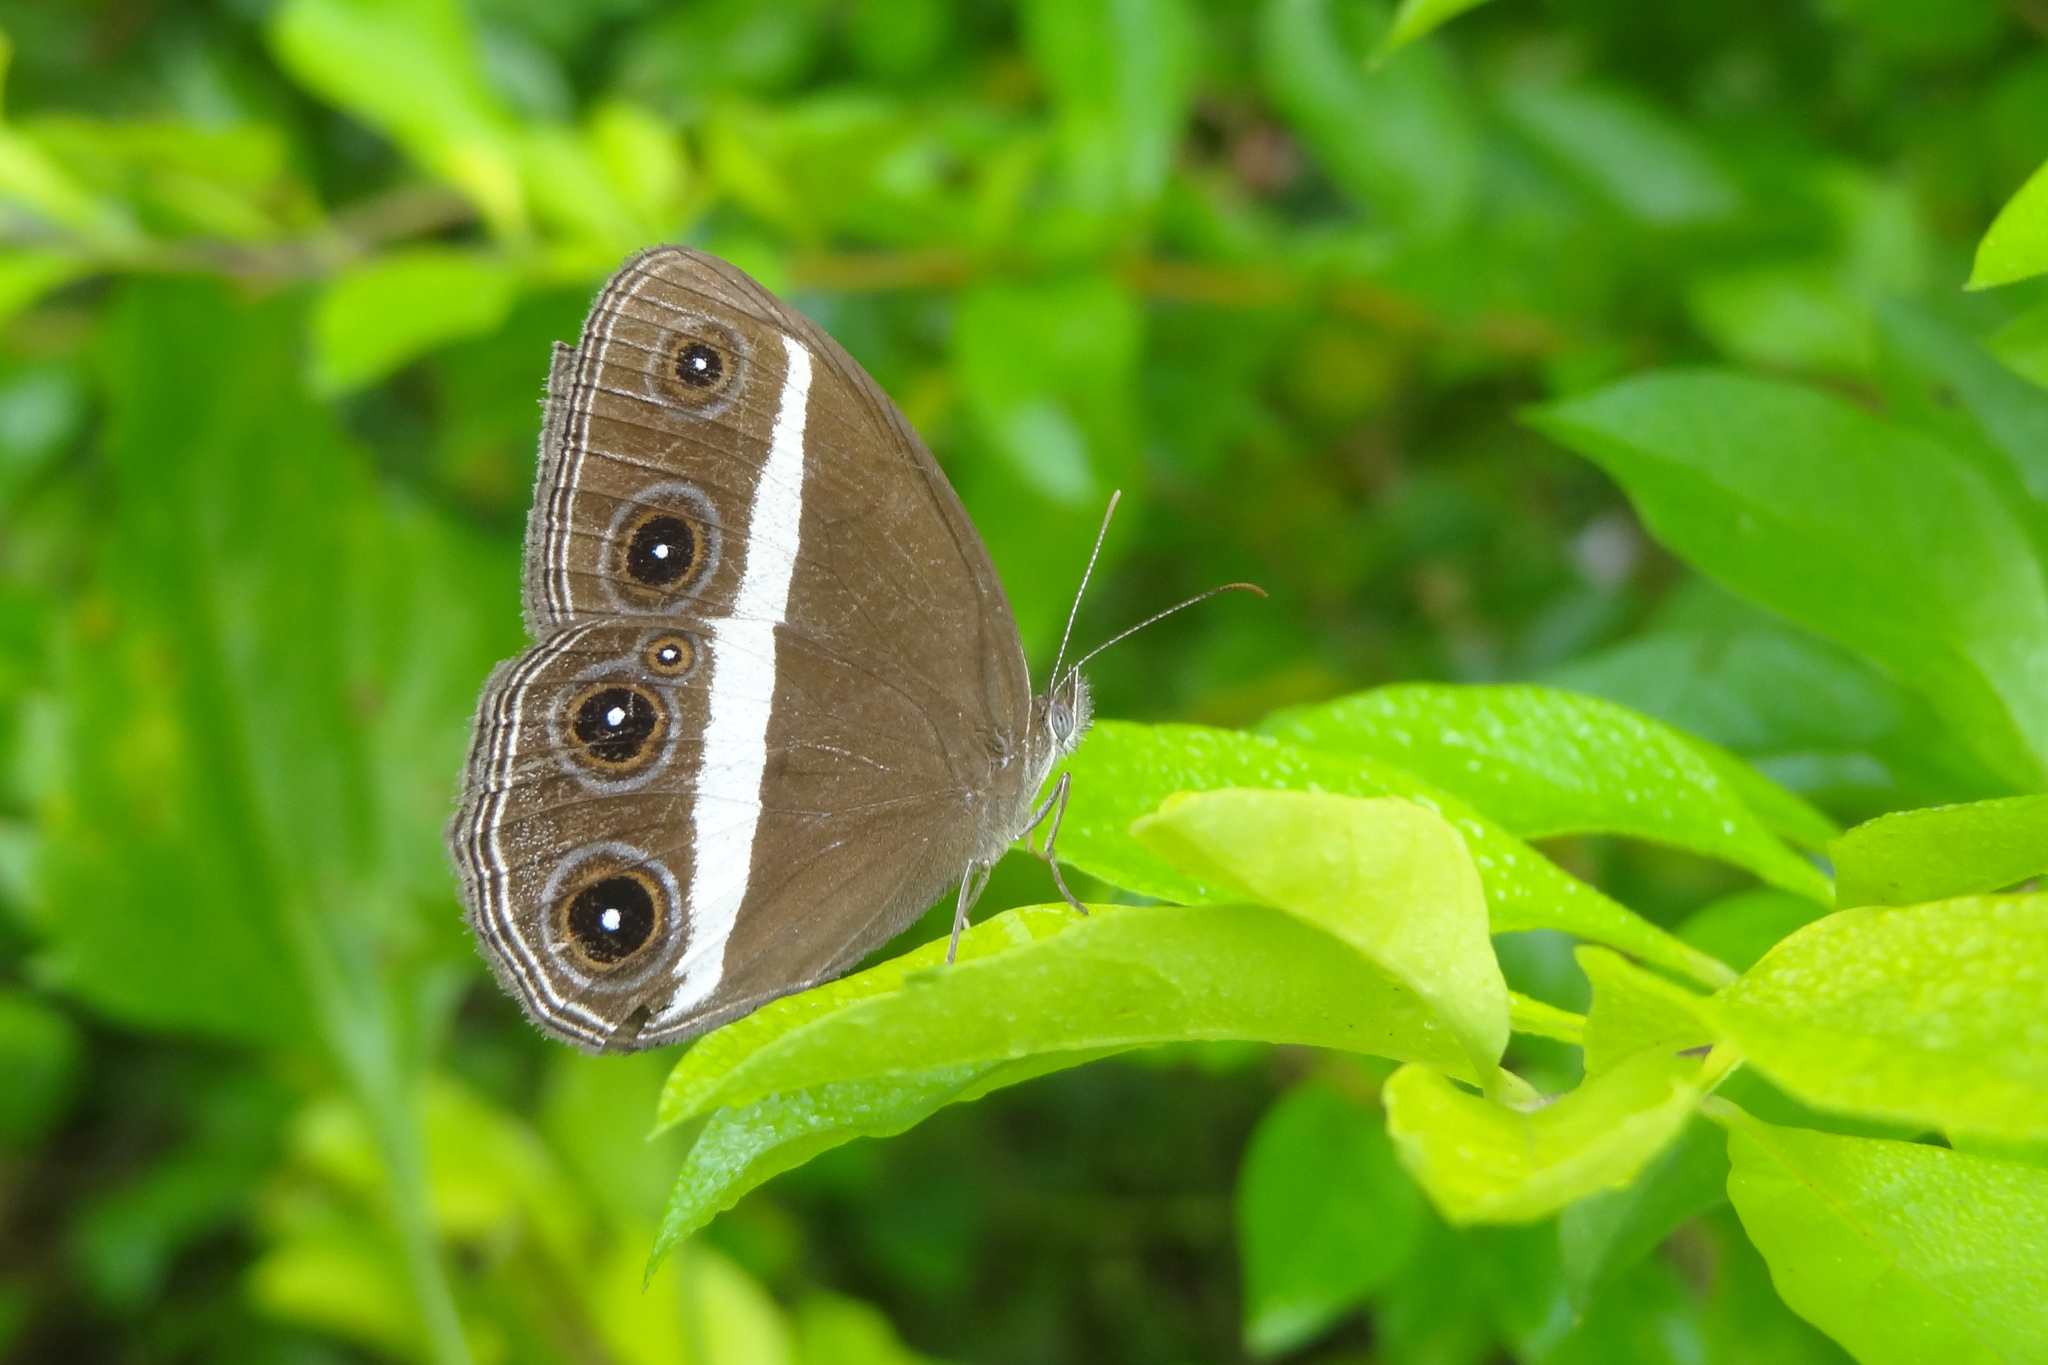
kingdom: Animalia
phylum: Arthropoda
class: Insecta
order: Lepidoptera
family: Nymphalidae
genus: Orsotriaena
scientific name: Orsotriaena medus
